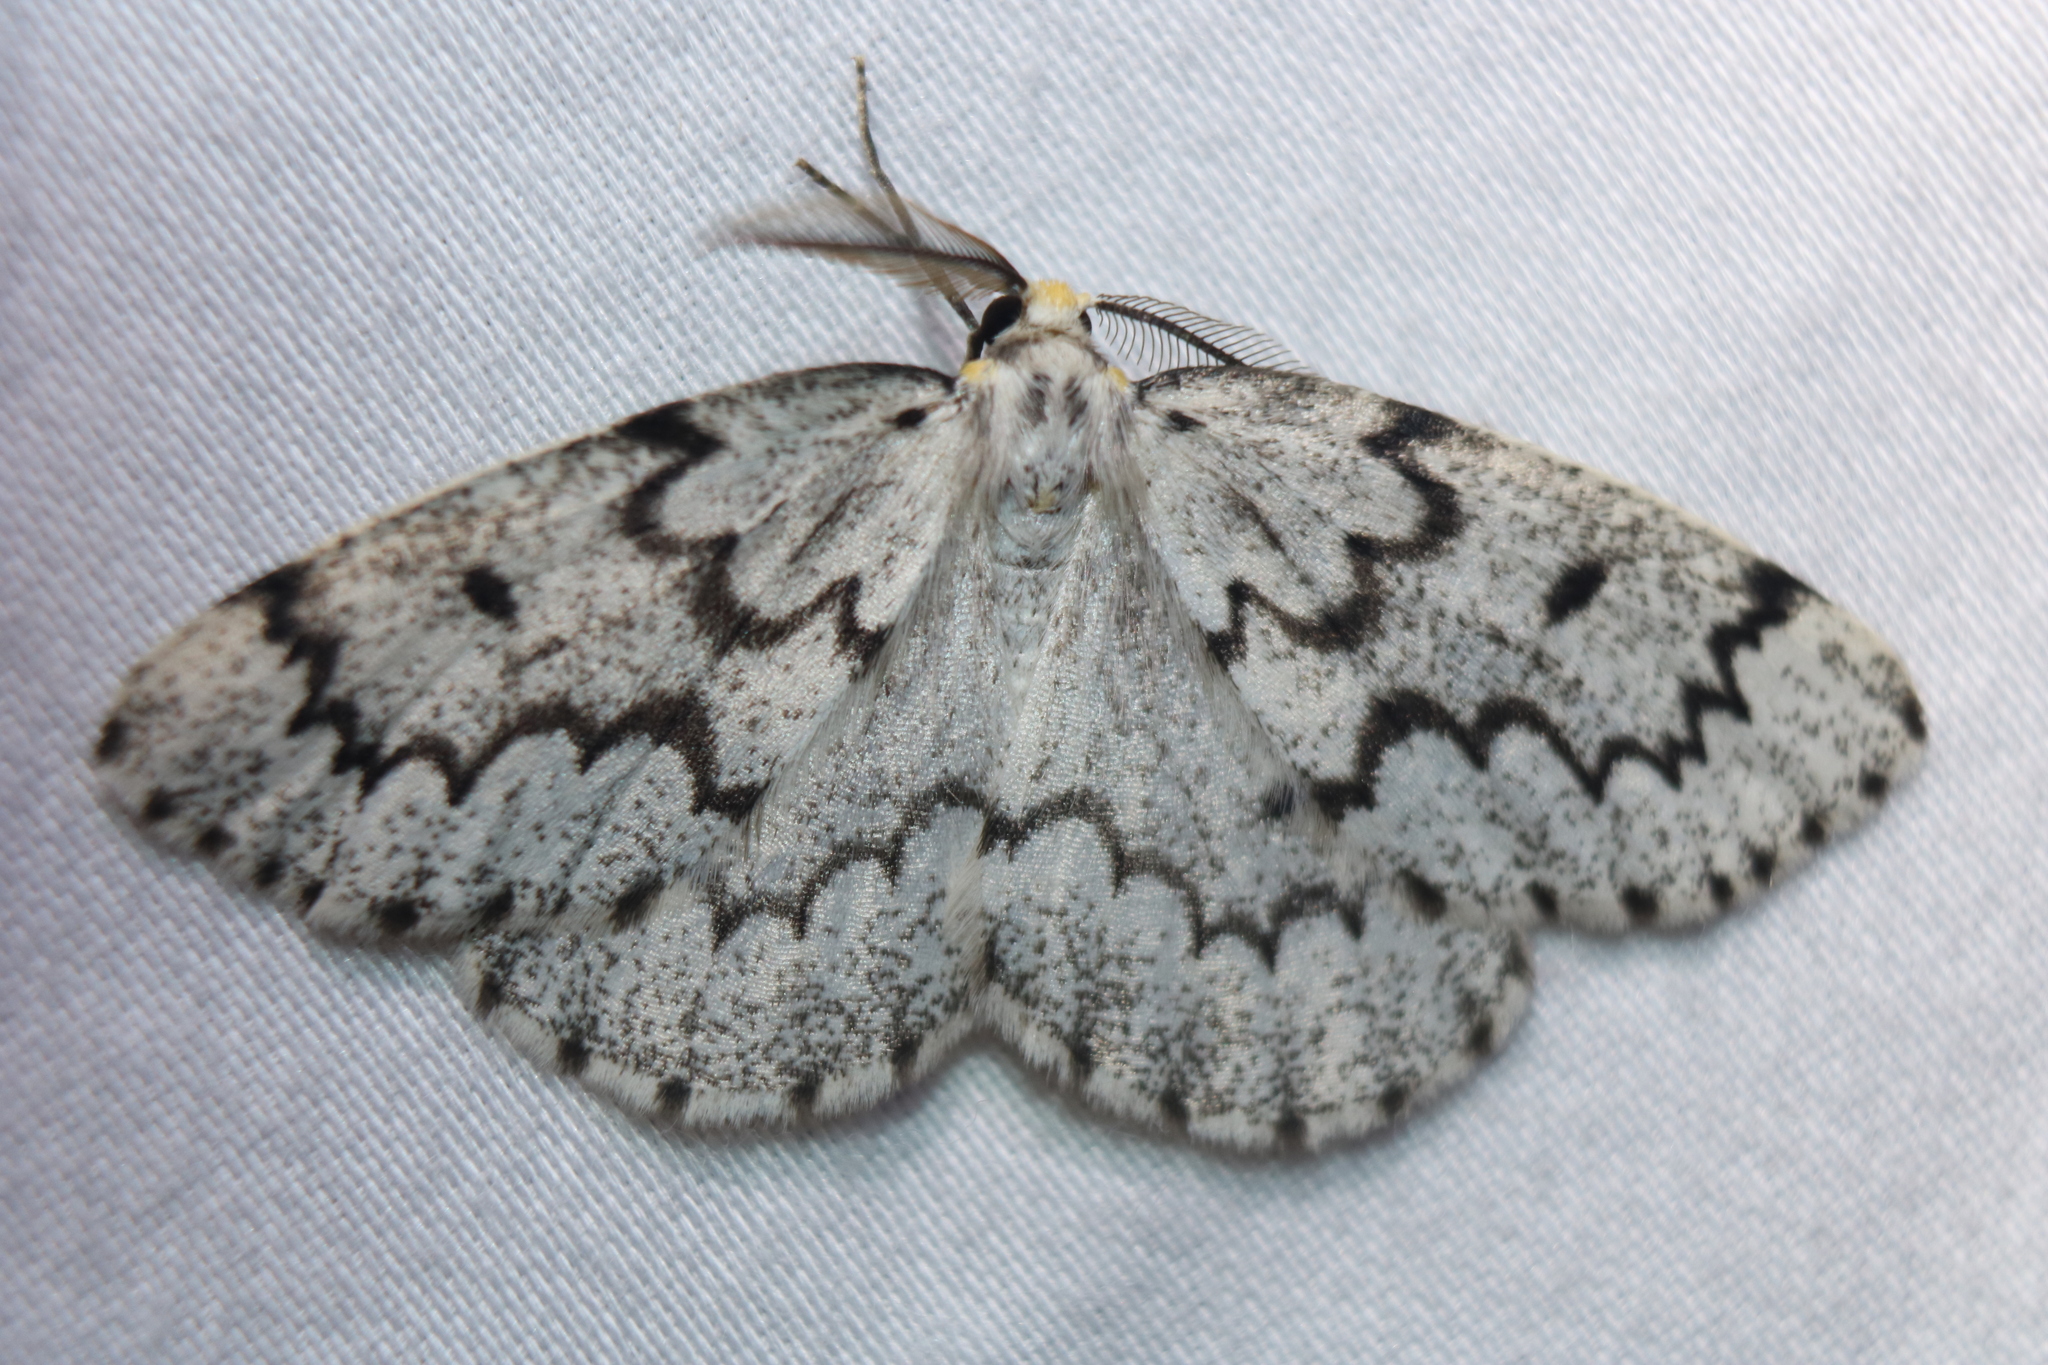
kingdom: Animalia
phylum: Arthropoda
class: Insecta
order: Lepidoptera
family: Geometridae
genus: Nepytia
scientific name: Nepytia canosaria
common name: False hemlock looper
